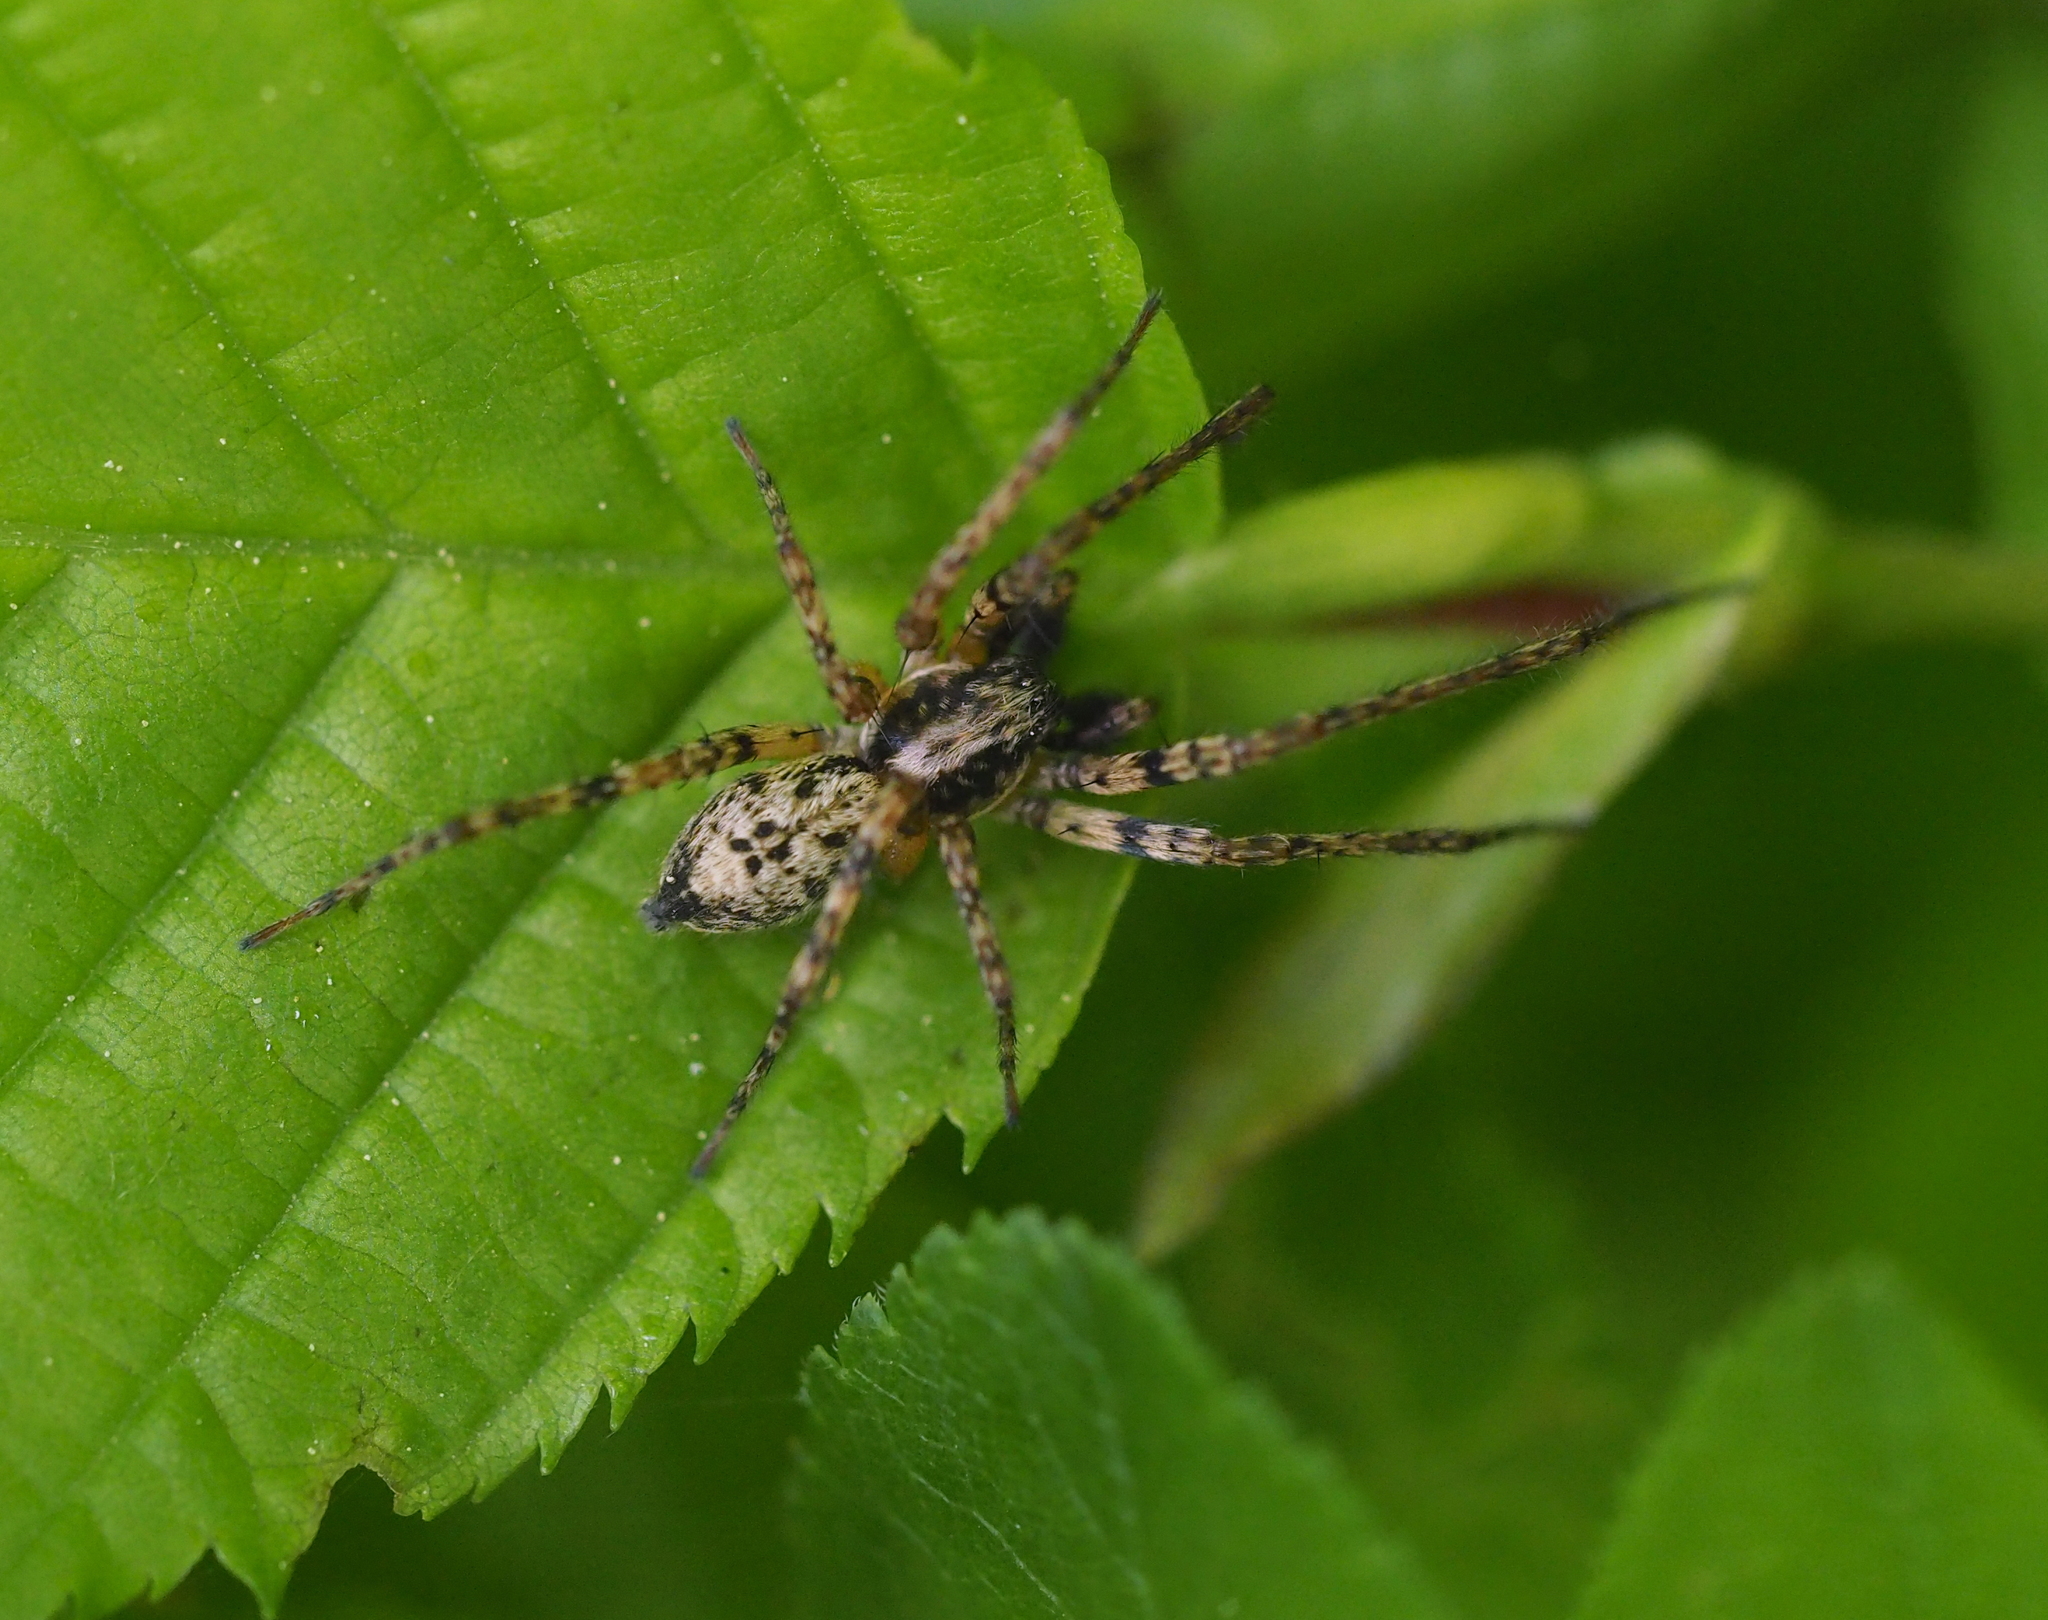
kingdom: Animalia
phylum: Arthropoda
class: Arachnida
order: Araneae
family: Anyphaenidae
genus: Anyphaena
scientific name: Anyphaena accentuata
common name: Buzzing spider
